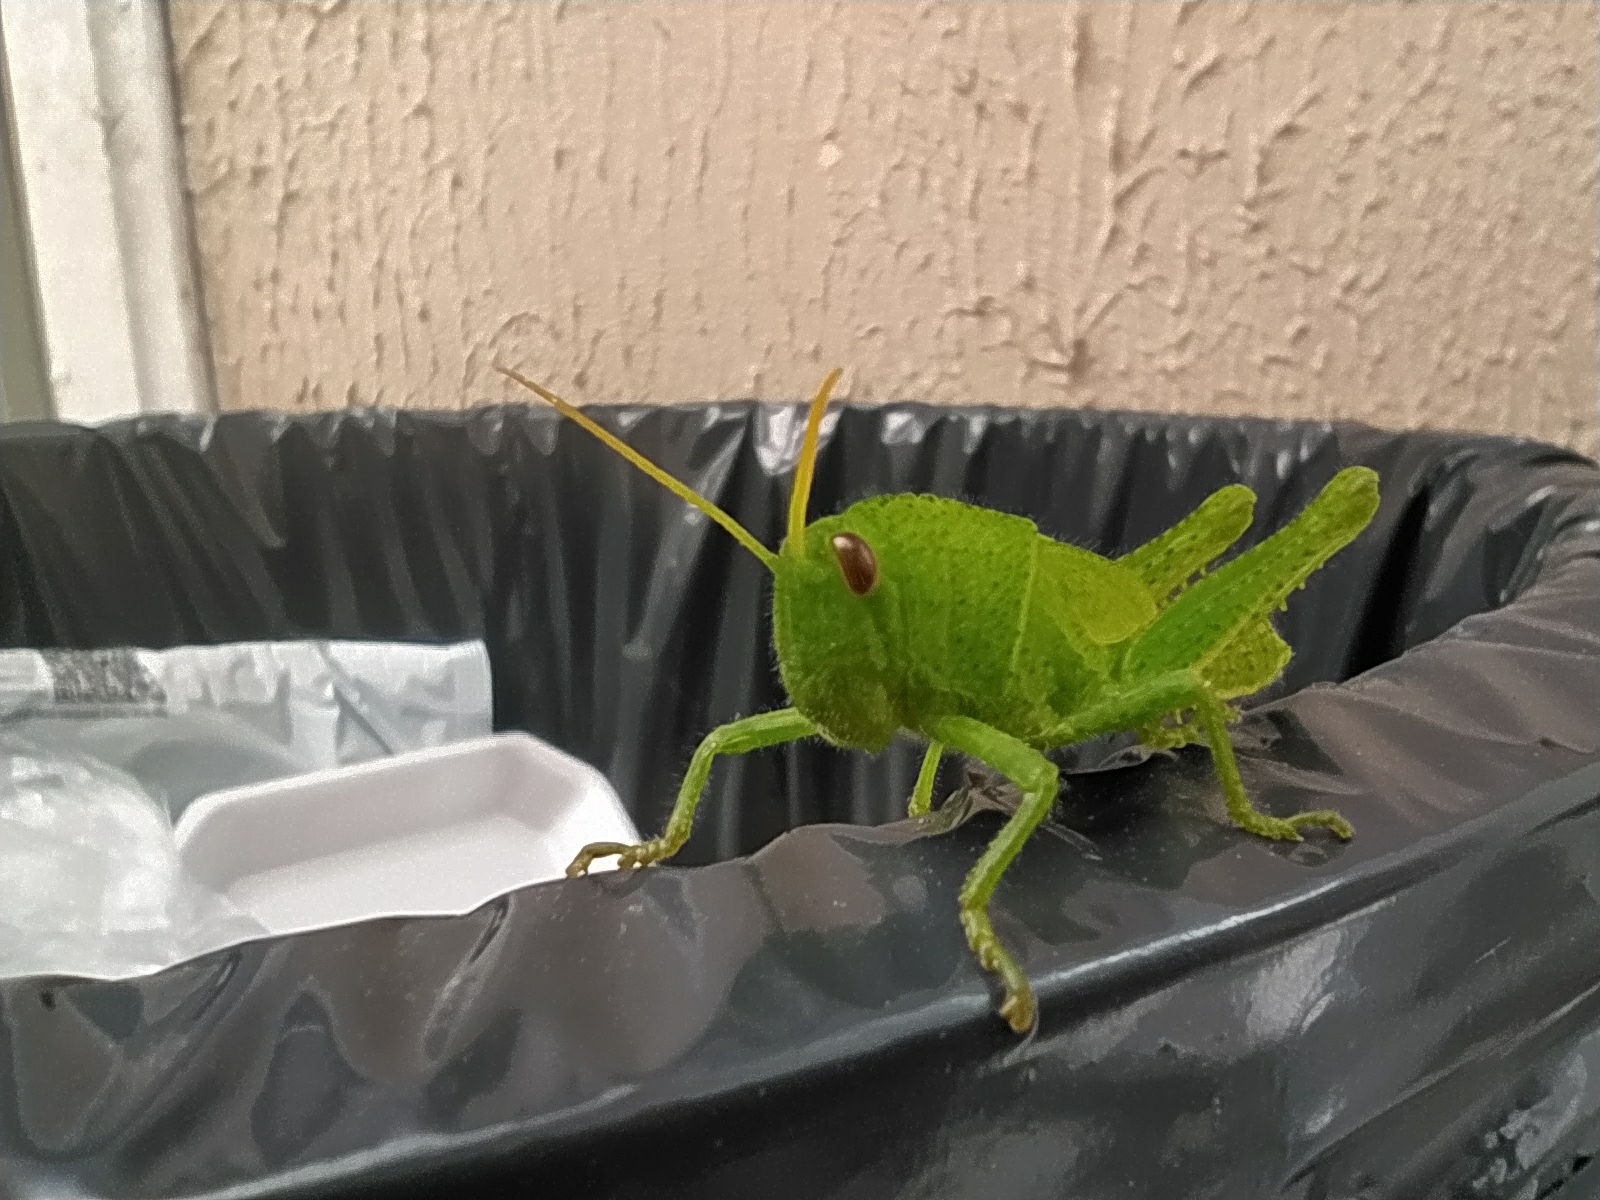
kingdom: Animalia
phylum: Arthropoda
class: Insecta
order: Orthoptera
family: Acrididae
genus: Schistocerca
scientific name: Schistocerca flavofasciata
